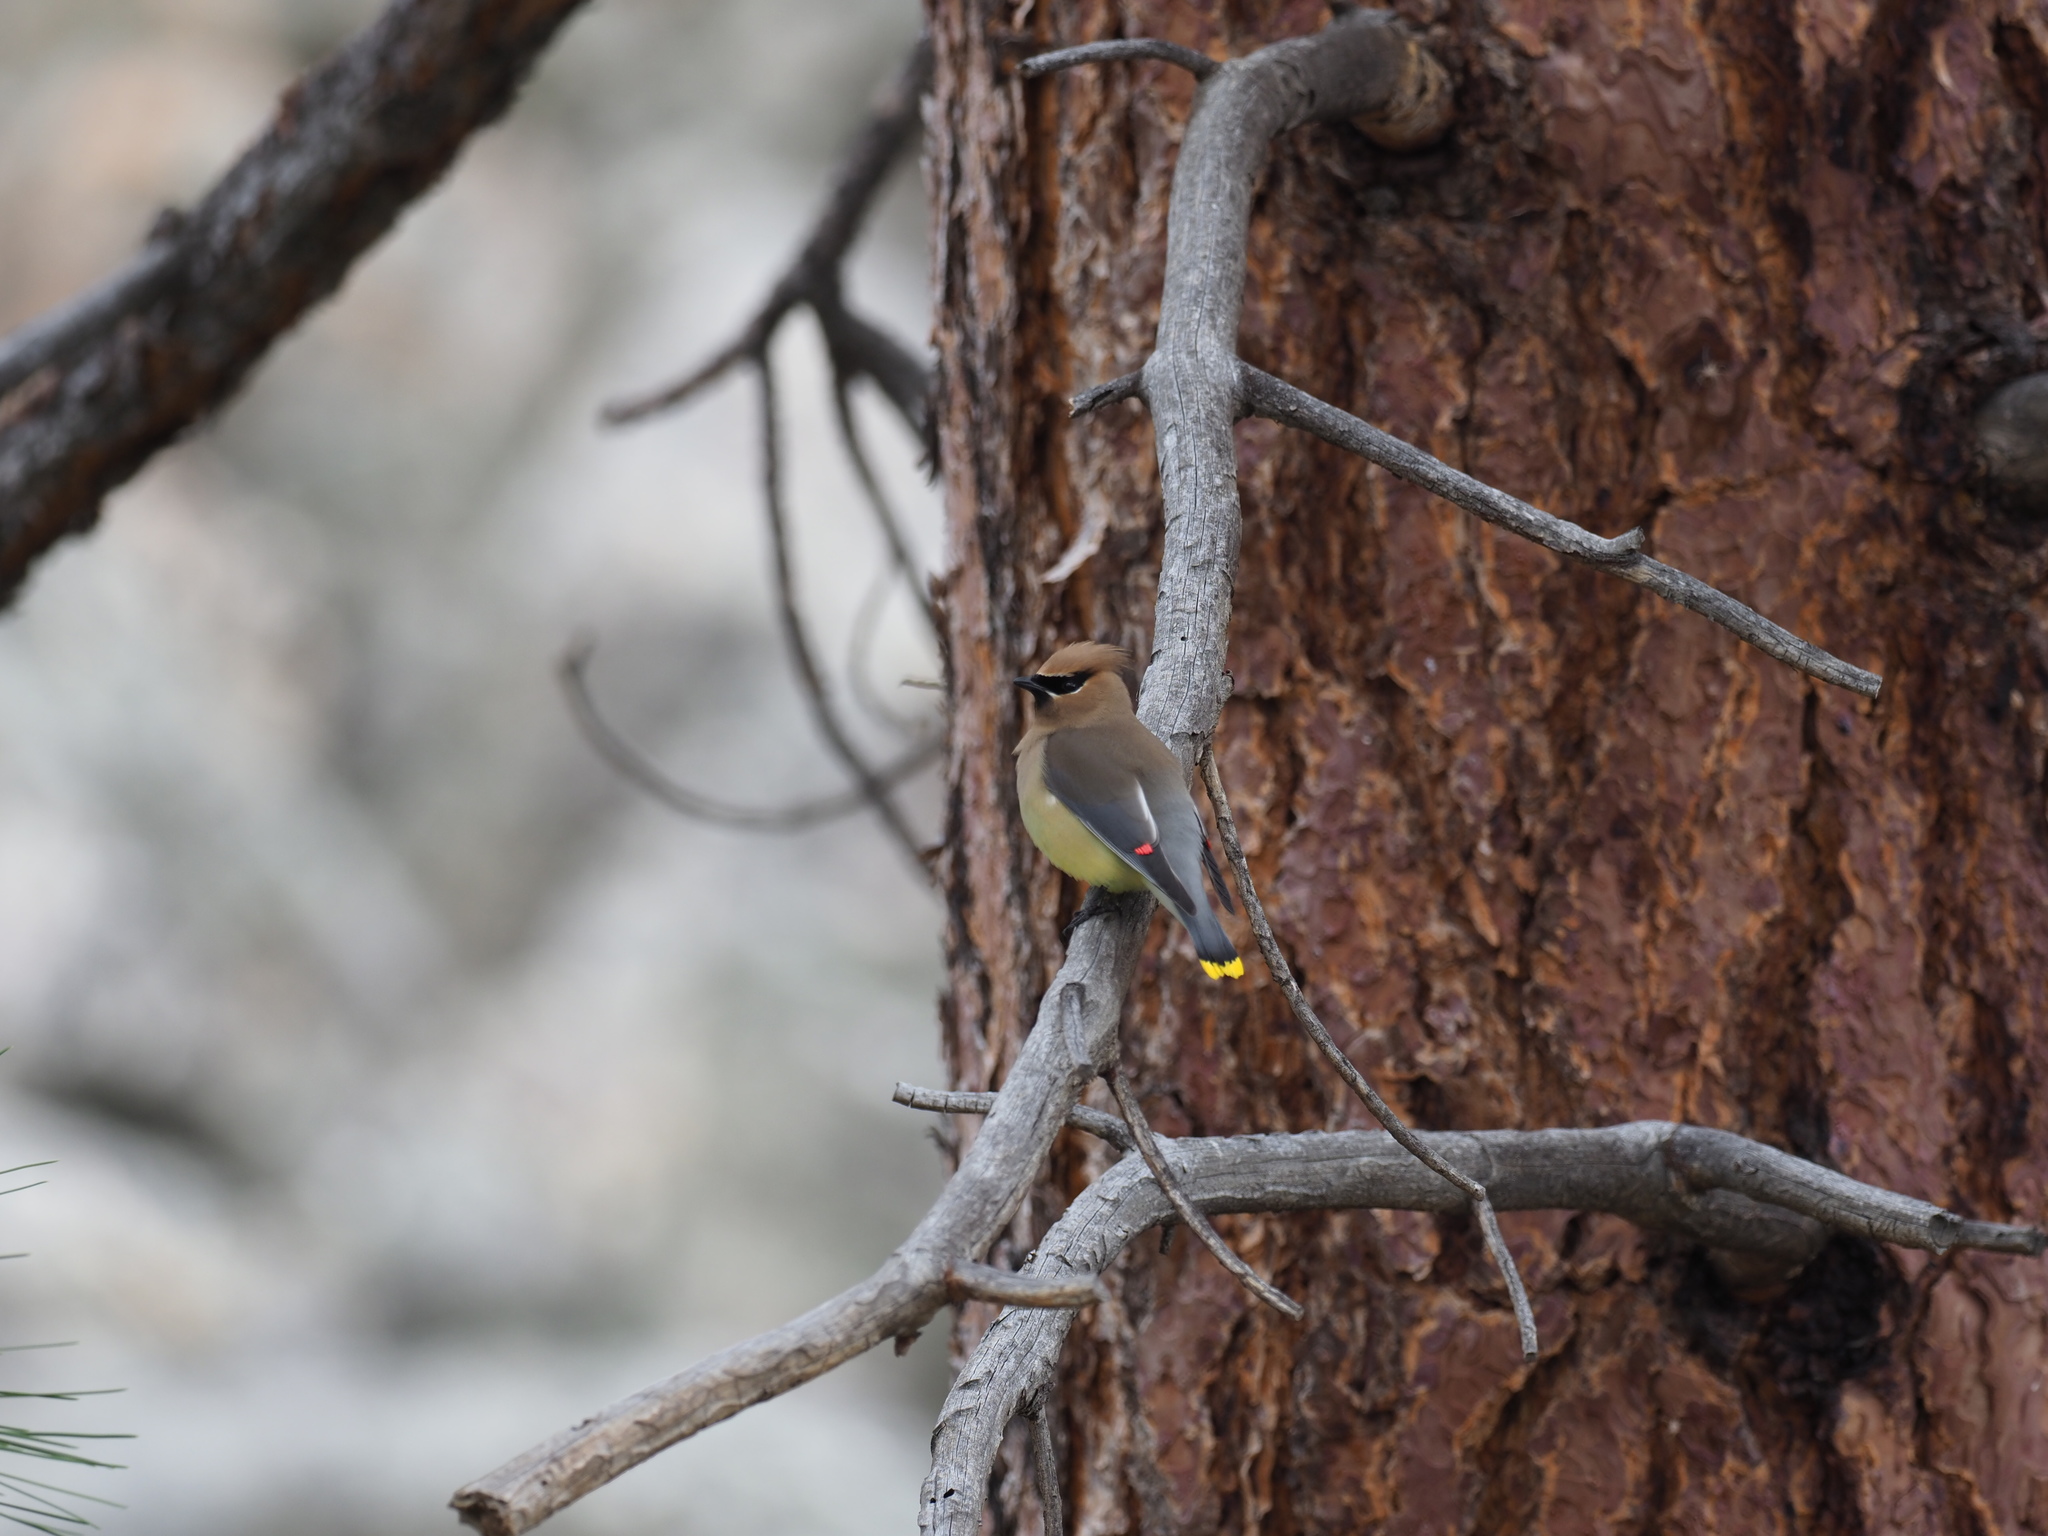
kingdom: Animalia
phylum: Chordata
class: Aves
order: Passeriformes
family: Bombycillidae
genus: Bombycilla
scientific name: Bombycilla cedrorum
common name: Cedar waxwing
